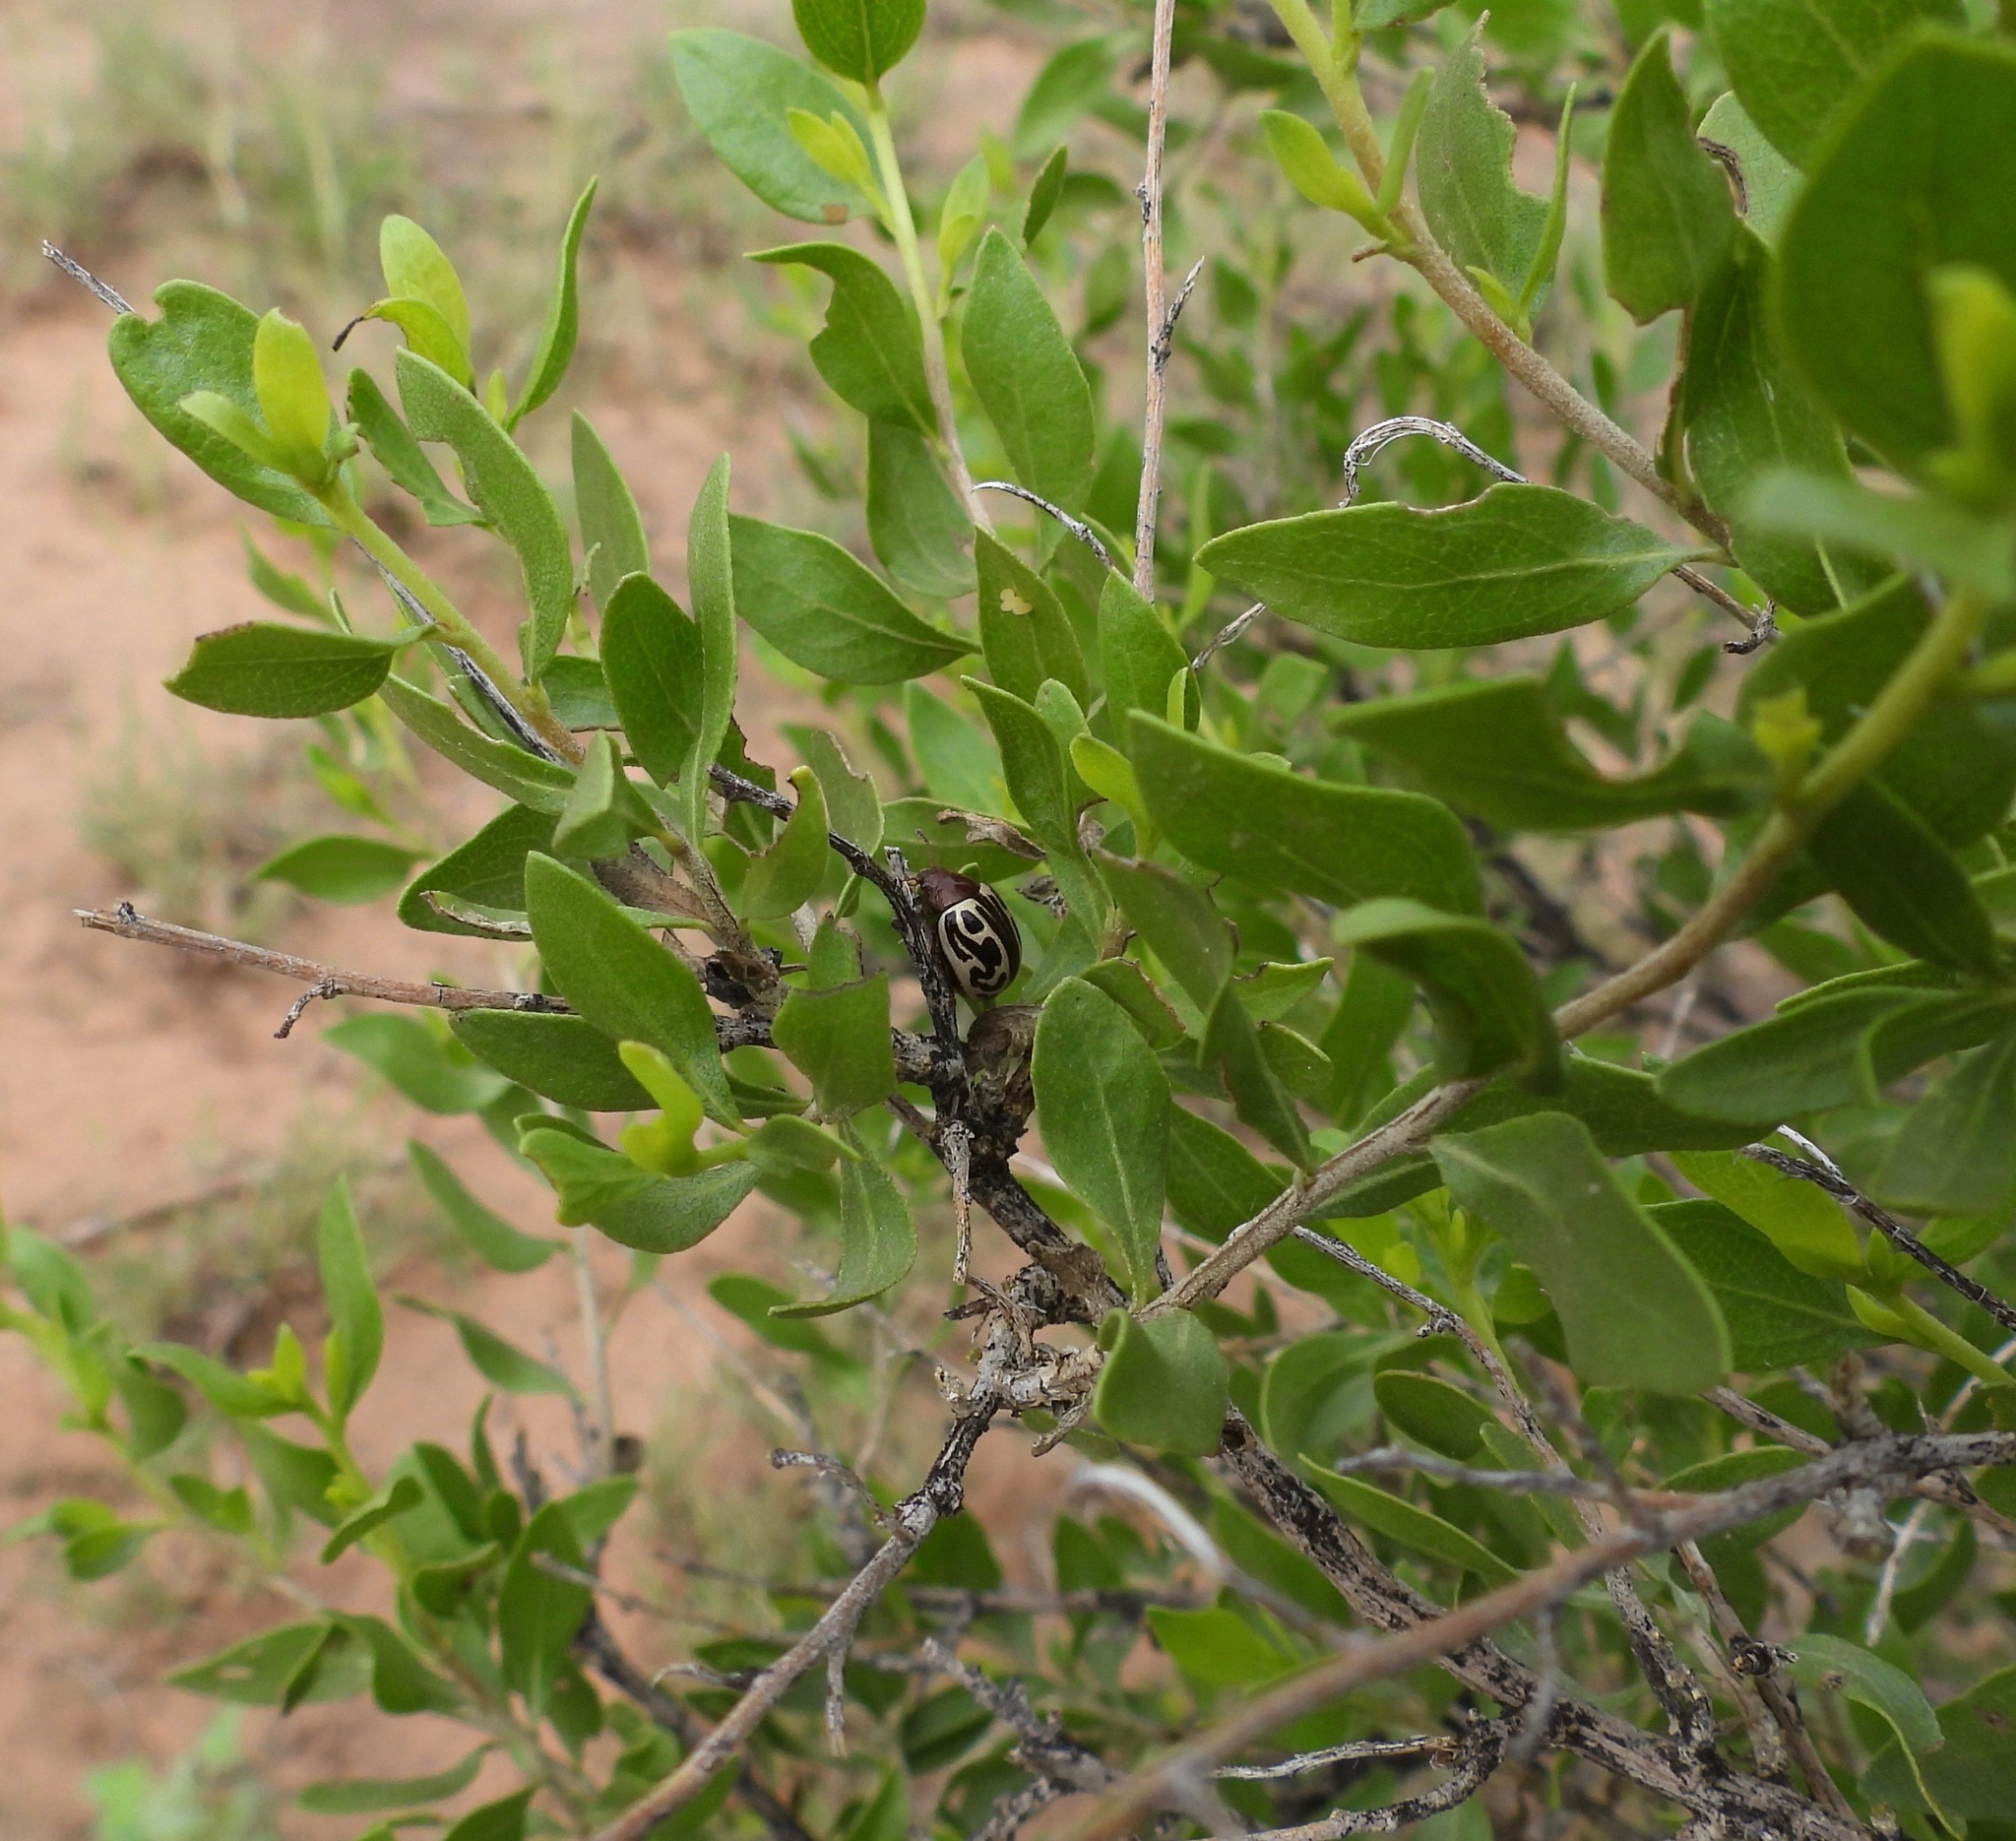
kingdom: Animalia
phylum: Arthropoda
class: Insecta
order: Coleoptera
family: Chrysomelidae
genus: Calligrapha
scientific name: Calligrapha
